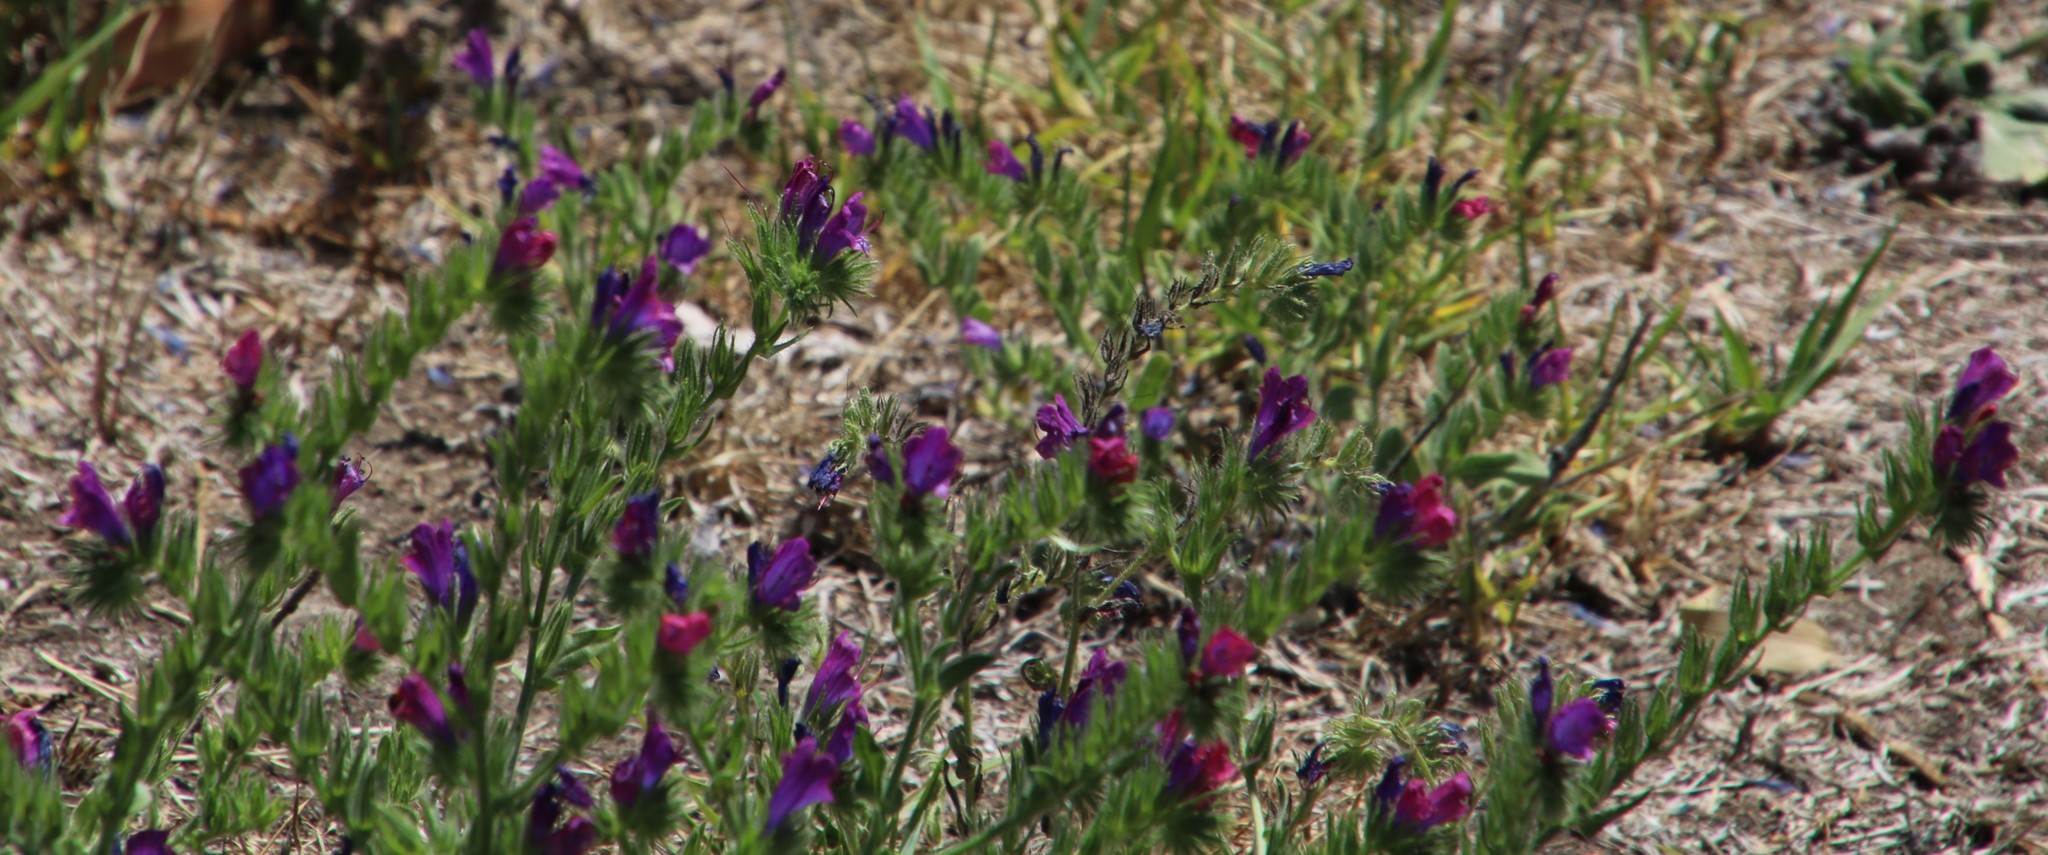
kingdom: Plantae
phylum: Tracheophyta
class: Magnoliopsida
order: Boraginales
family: Boraginaceae
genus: Echium
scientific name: Echium plantagineum
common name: Purple viper's-bugloss
